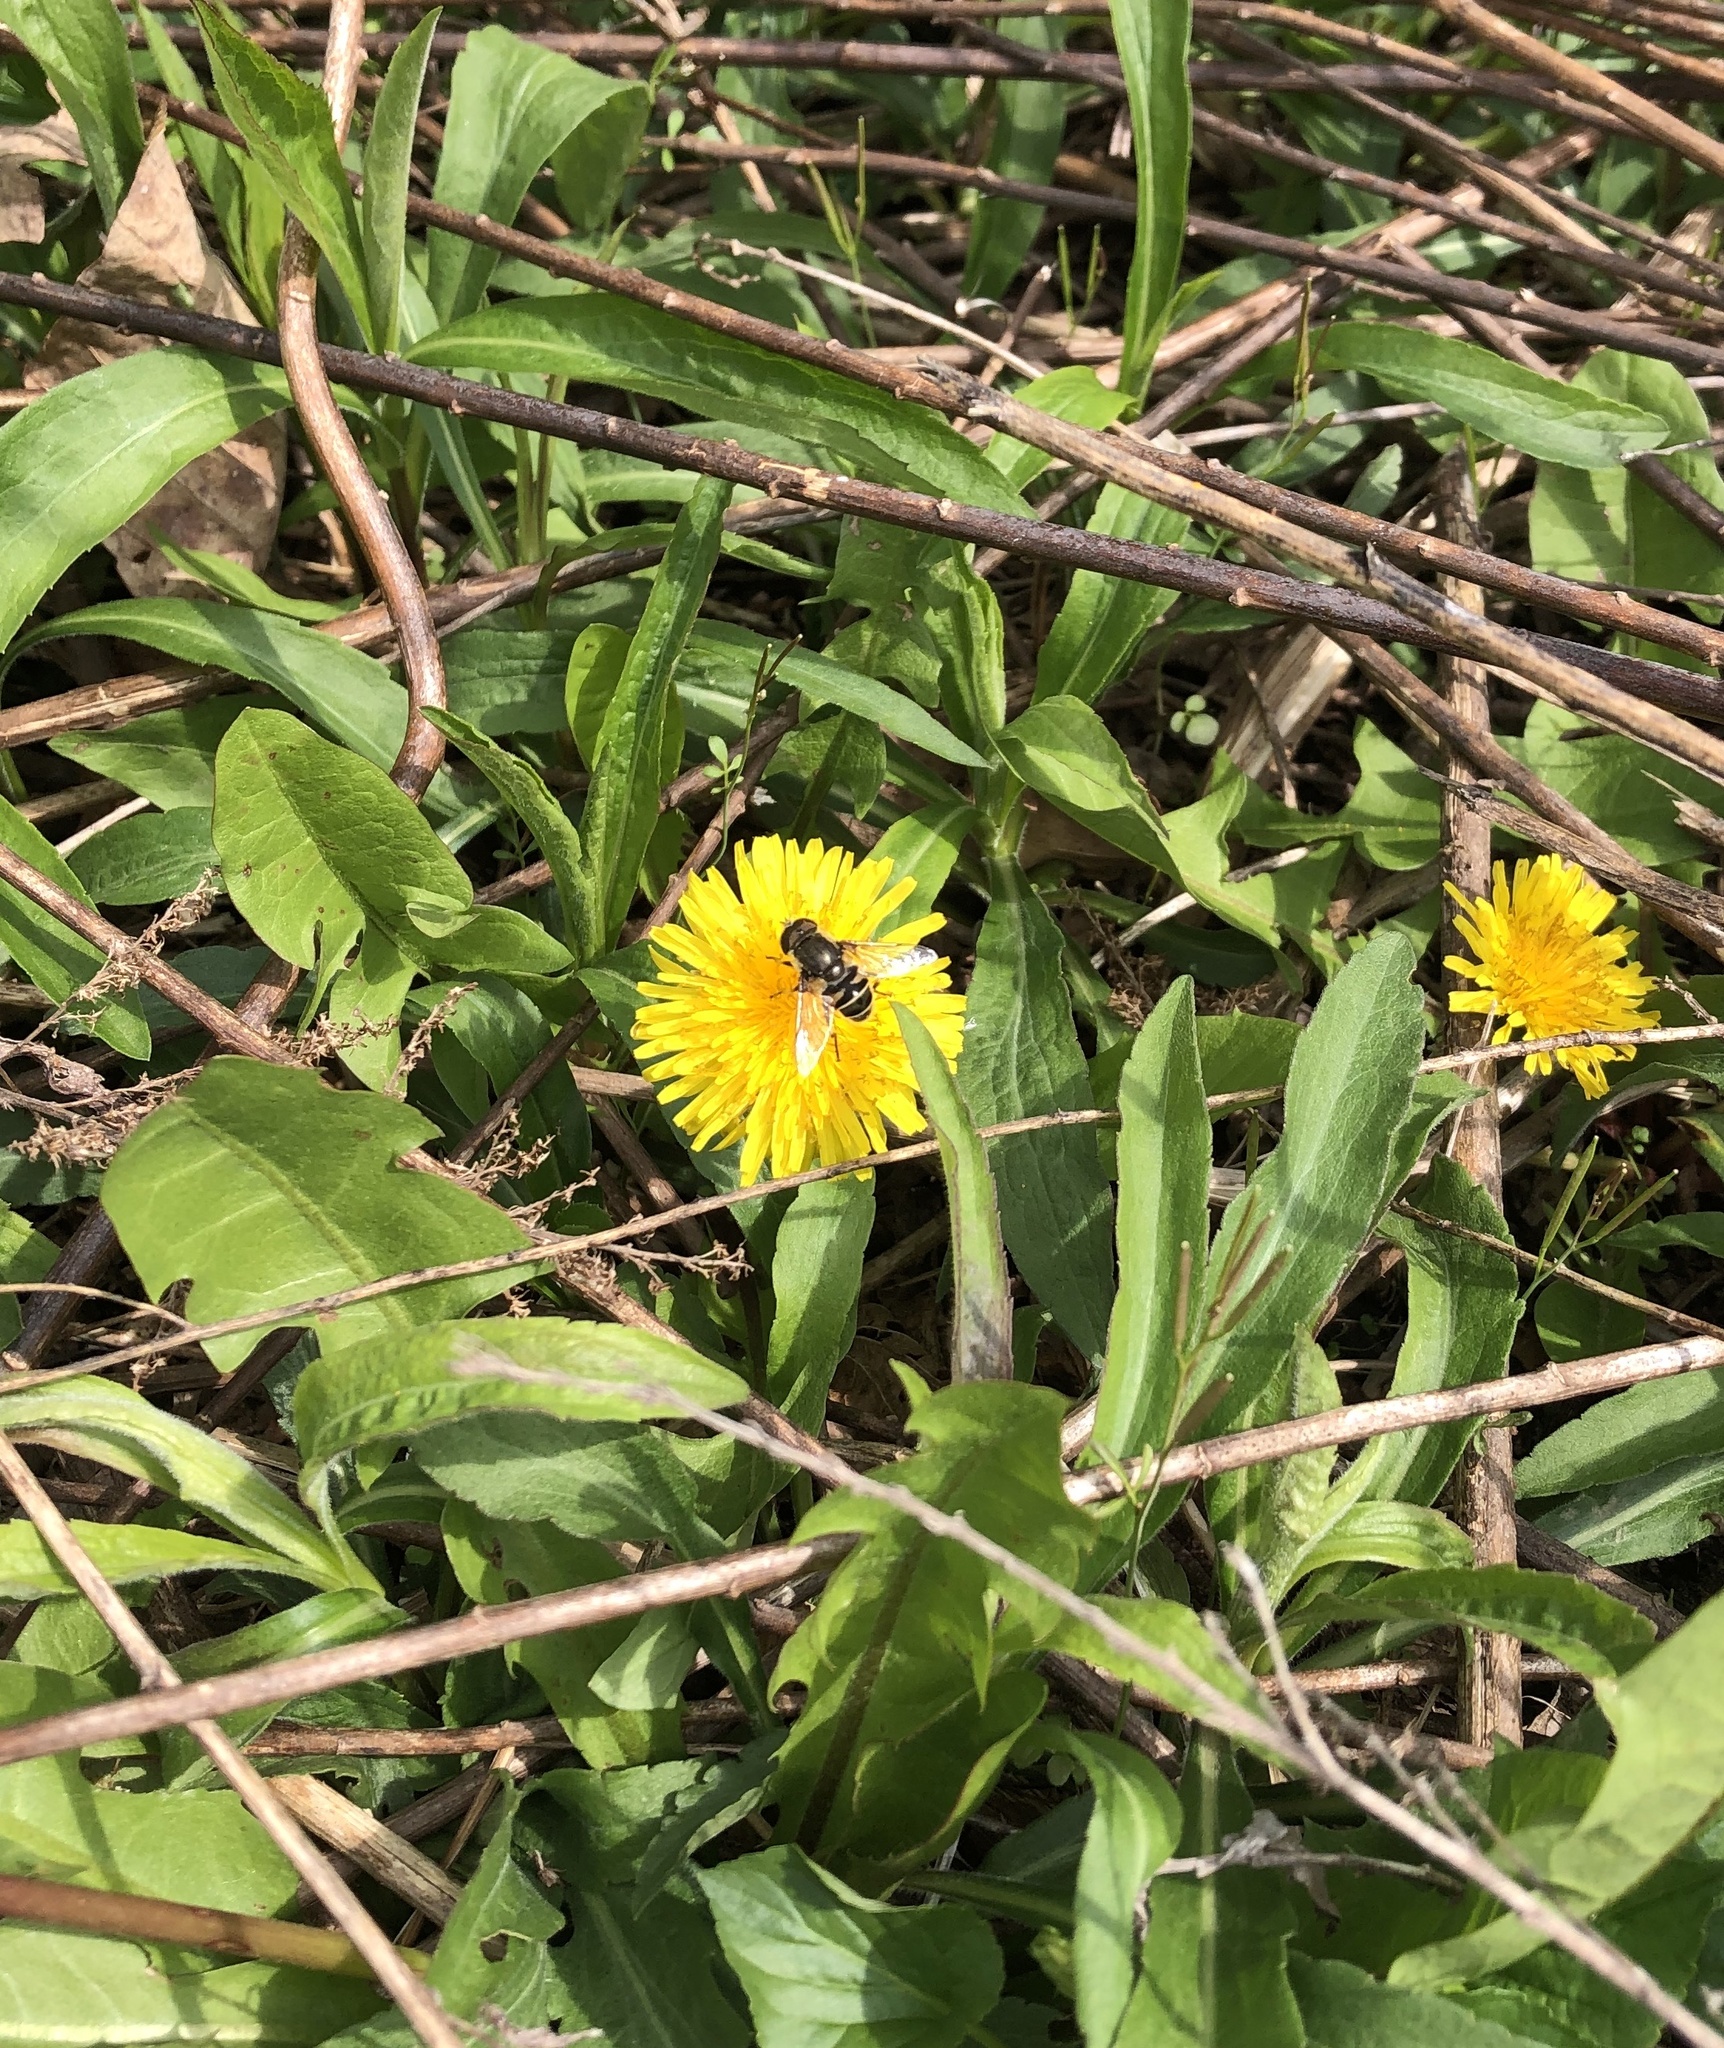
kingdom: Animalia
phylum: Arthropoda
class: Insecta
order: Diptera
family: Syrphidae
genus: Eristalis
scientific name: Eristalis dimidiata
